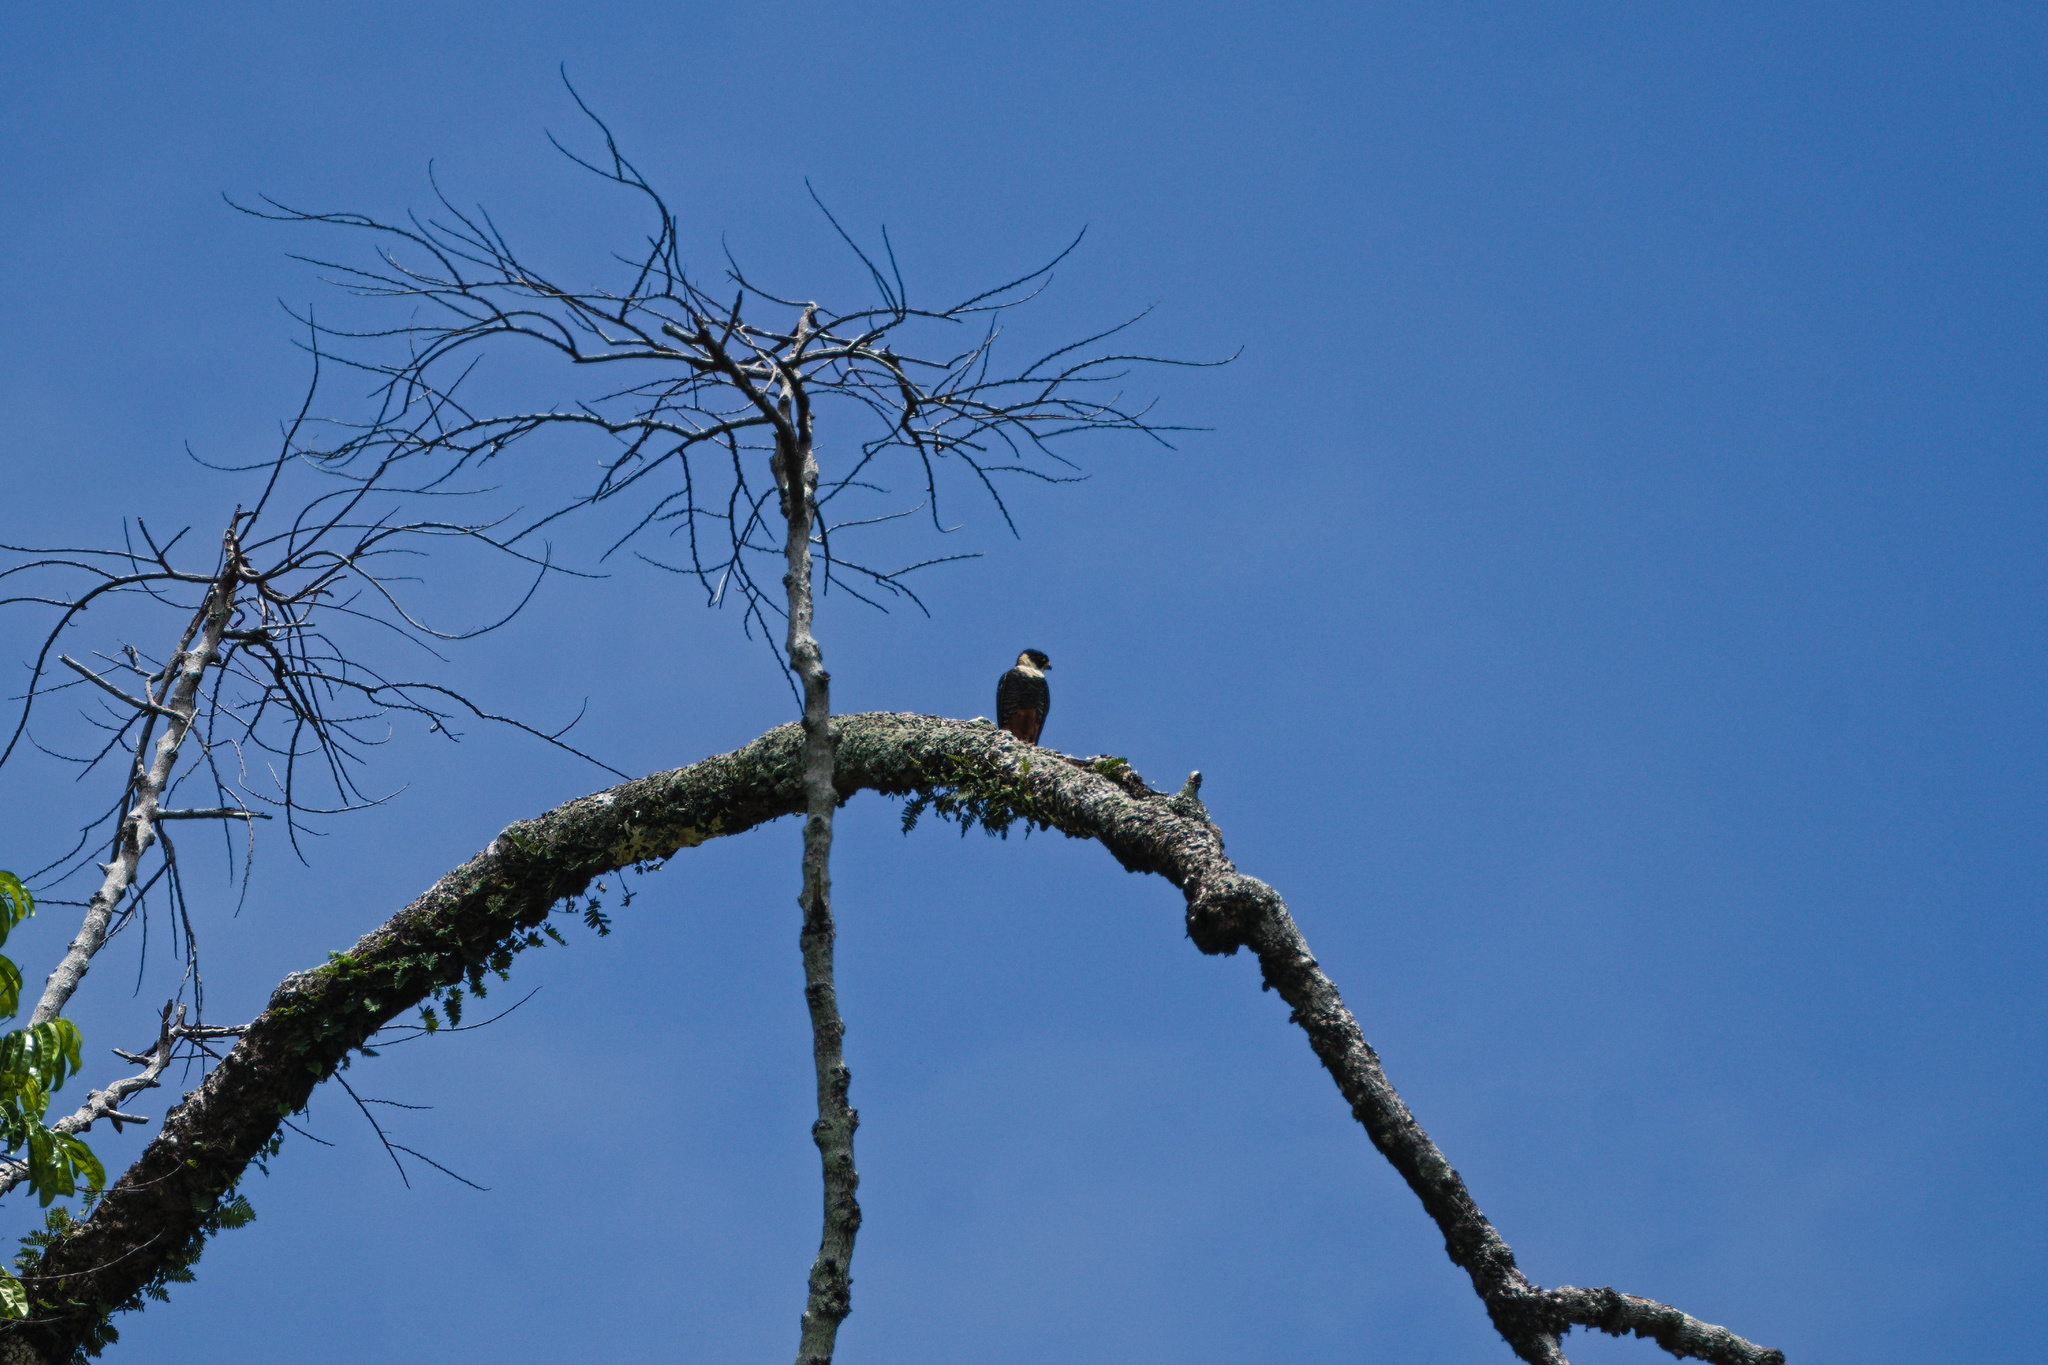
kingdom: Animalia
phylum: Chordata
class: Aves
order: Falconiformes
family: Falconidae
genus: Falco
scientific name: Falco rufigularis
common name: Bat falcon
